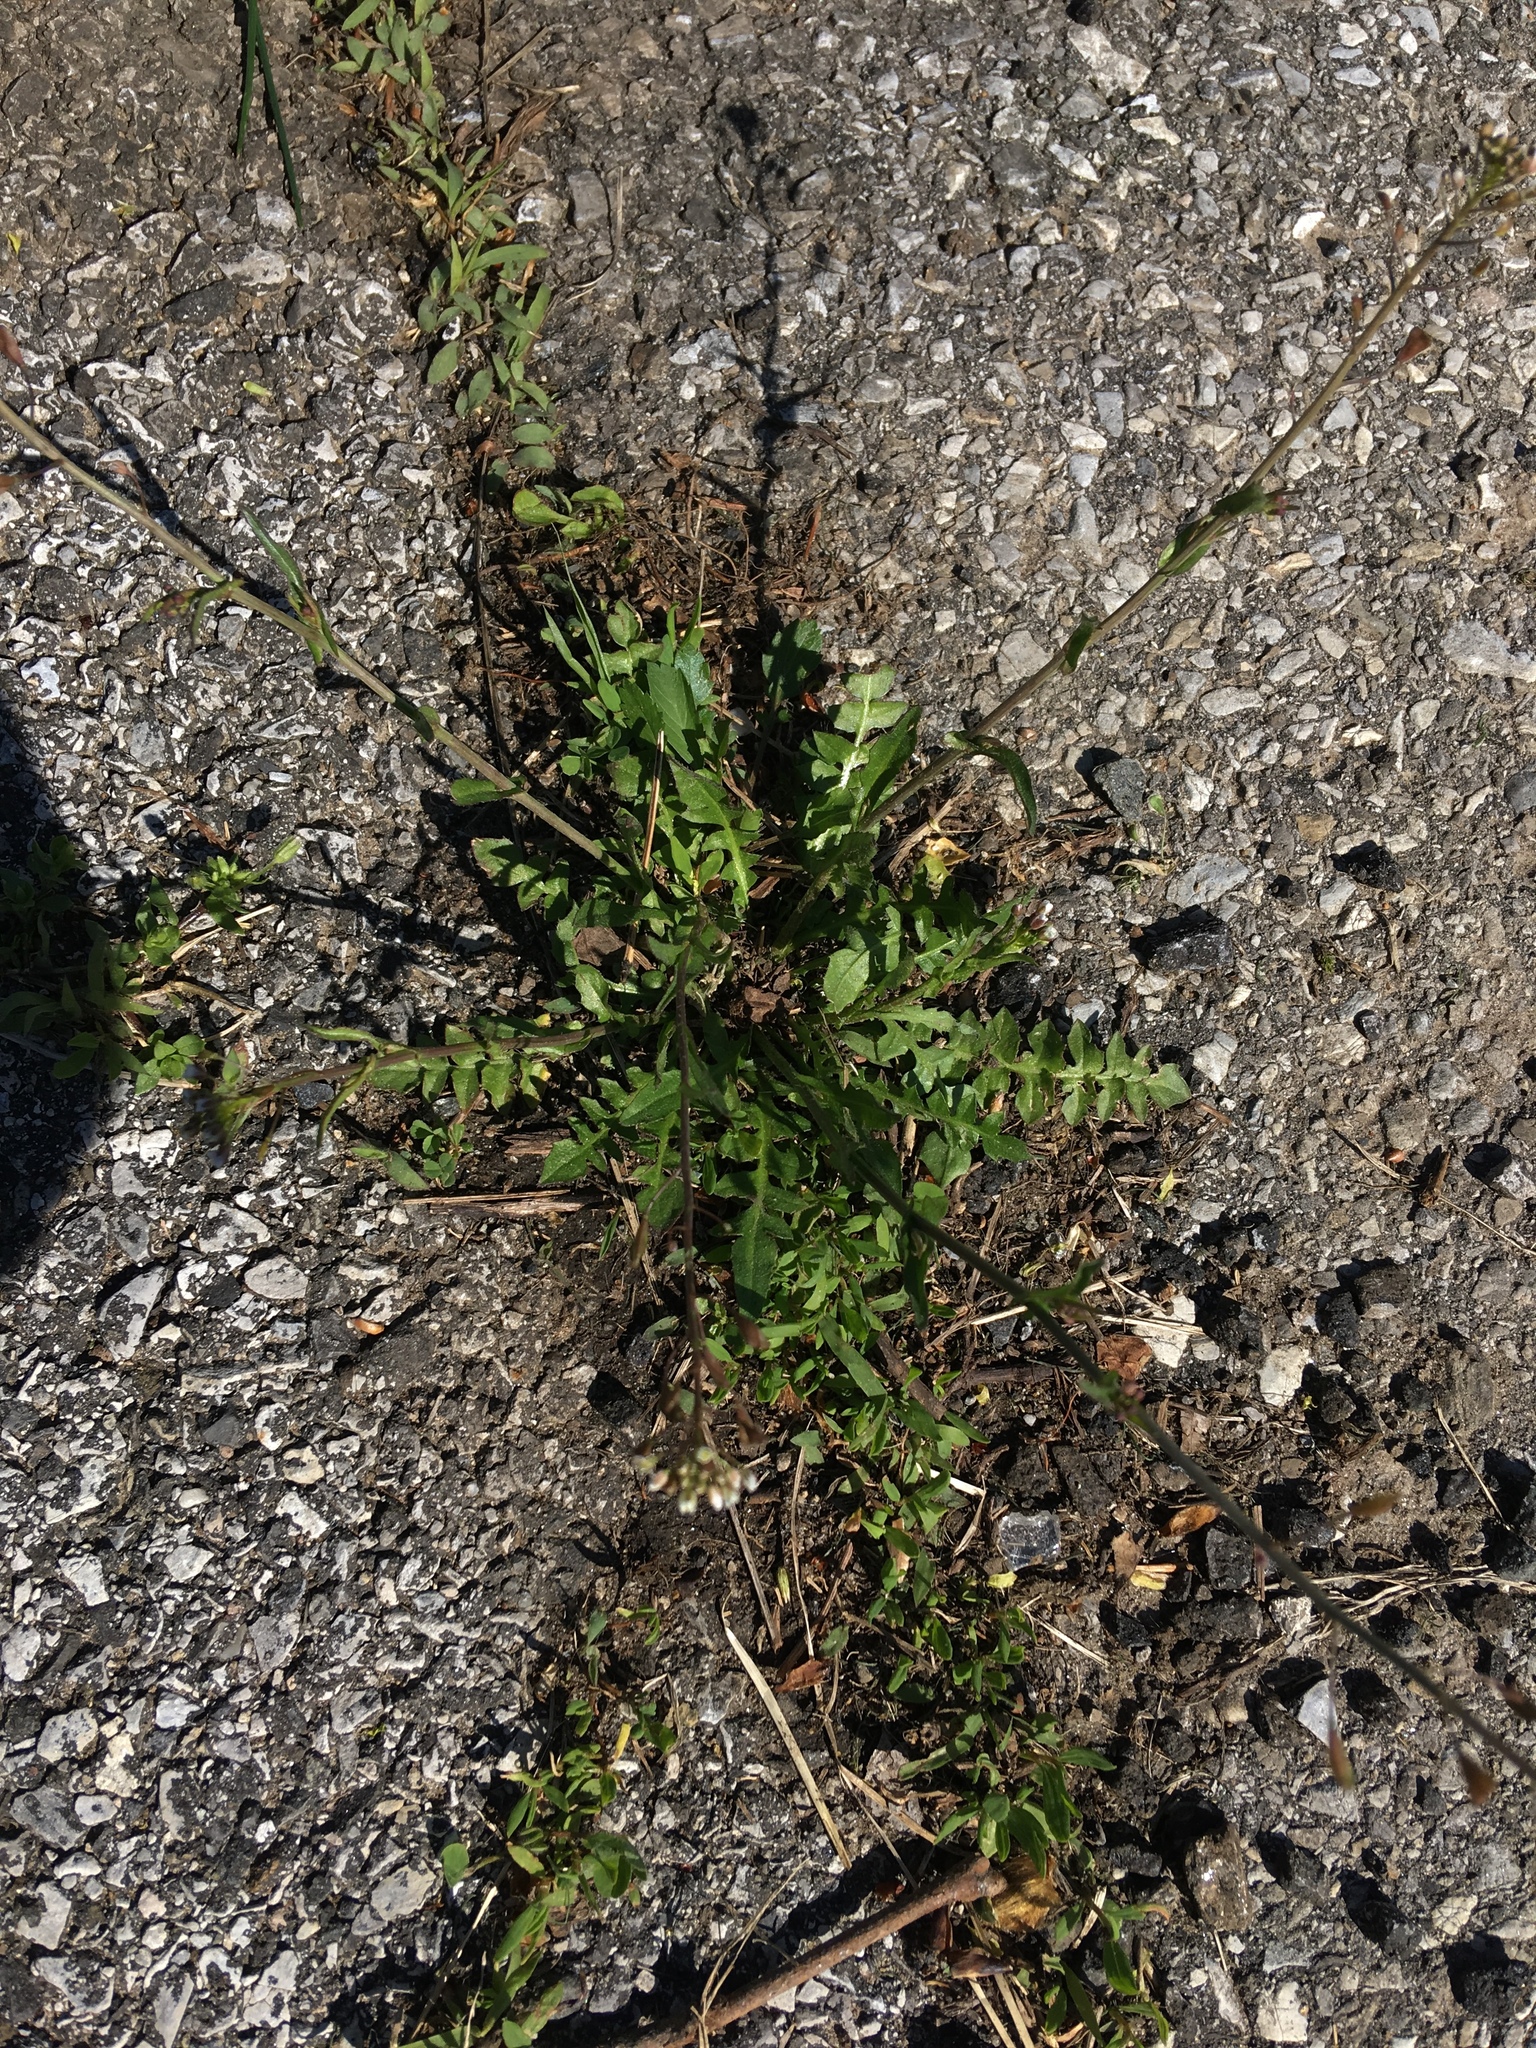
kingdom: Plantae
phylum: Tracheophyta
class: Magnoliopsida
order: Brassicales
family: Brassicaceae
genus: Capsella
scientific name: Capsella bursa-pastoris
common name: Shepherd's purse
